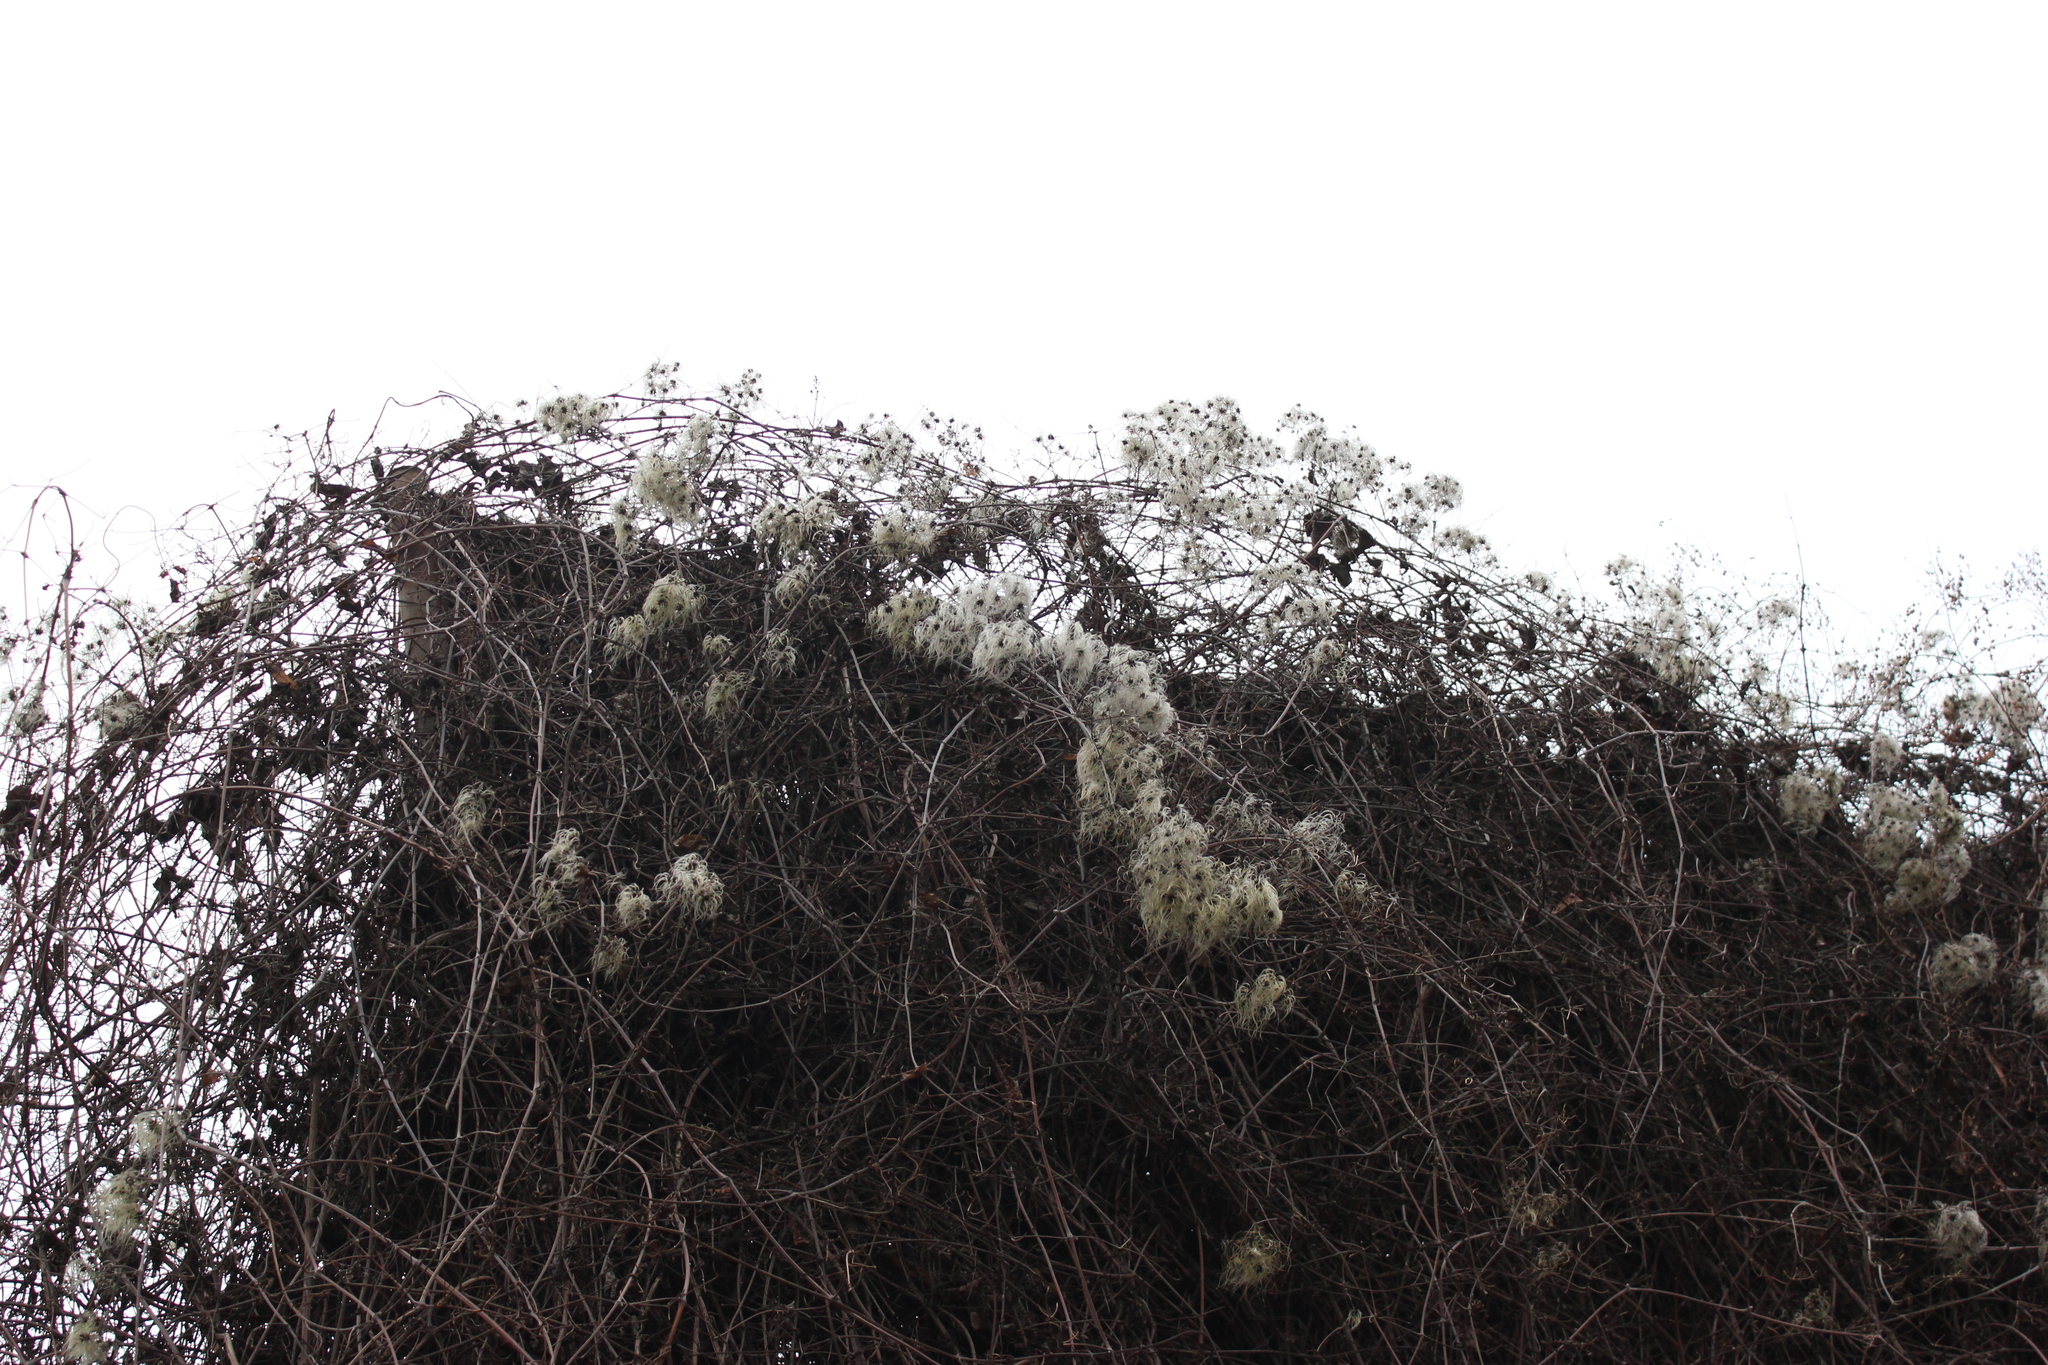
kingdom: Plantae
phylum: Tracheophyta
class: Magnoliopsida
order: Ranunculales
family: Ranunculaceae
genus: Clematis
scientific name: Clematis vitalba
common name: Evergreen clematis
